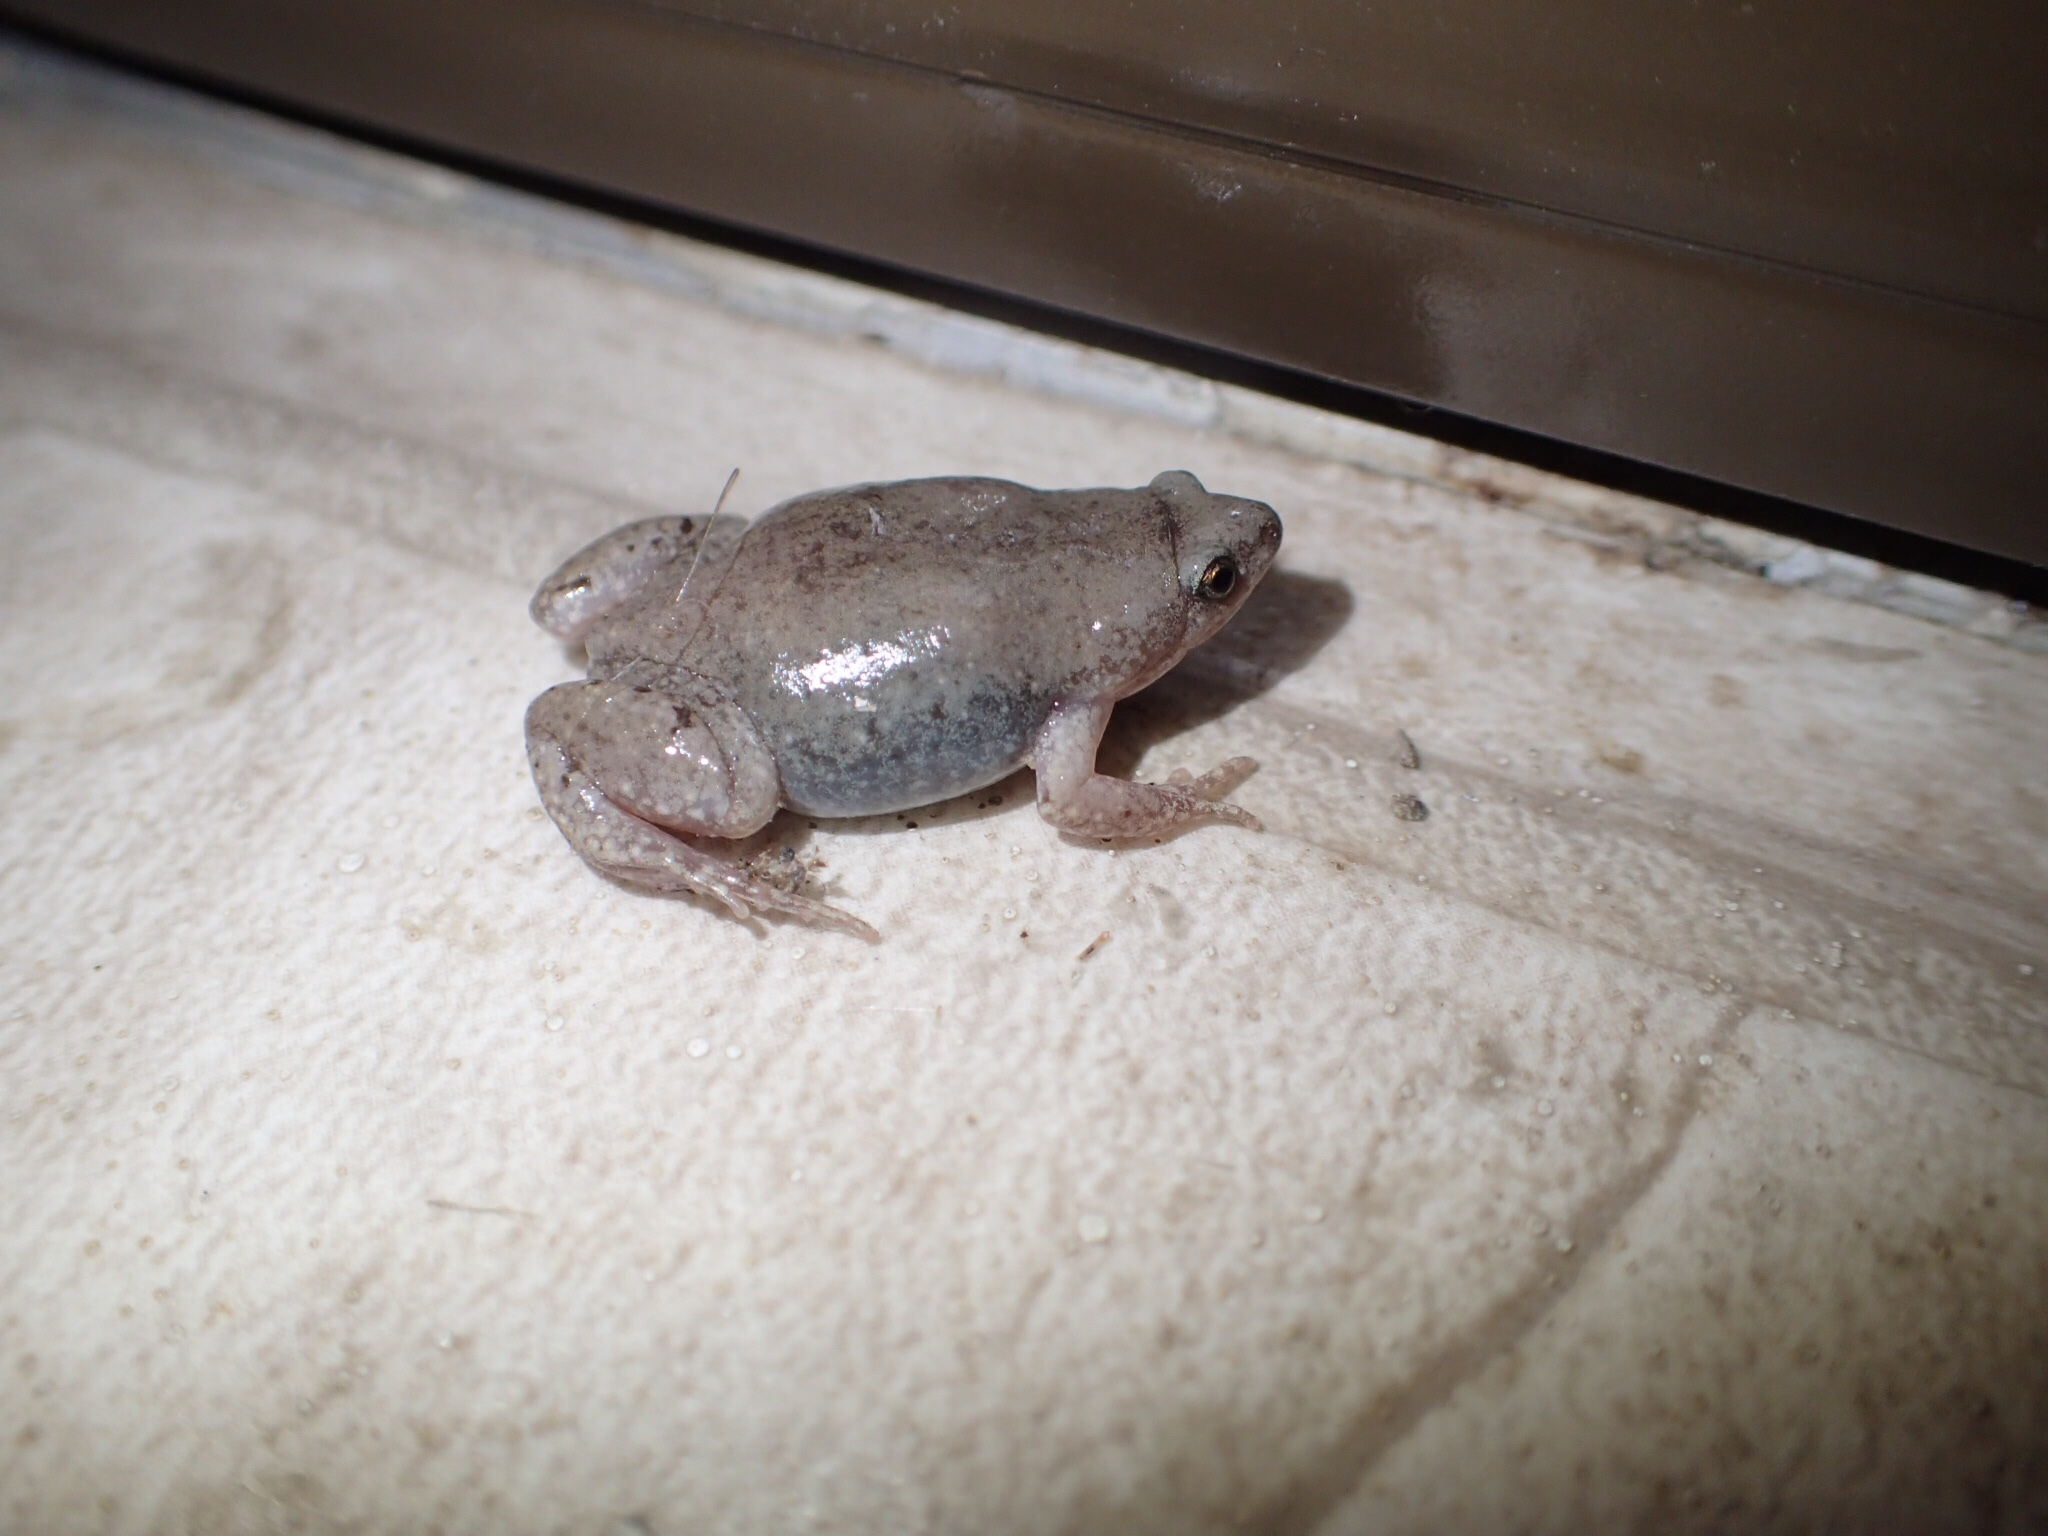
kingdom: Animalia
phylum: Chordata
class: Amphibia
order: Anura
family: Microhylidae
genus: Gastrophryne
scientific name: Gastrophryne olivacea
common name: Great plains narrow-mouthed toad
